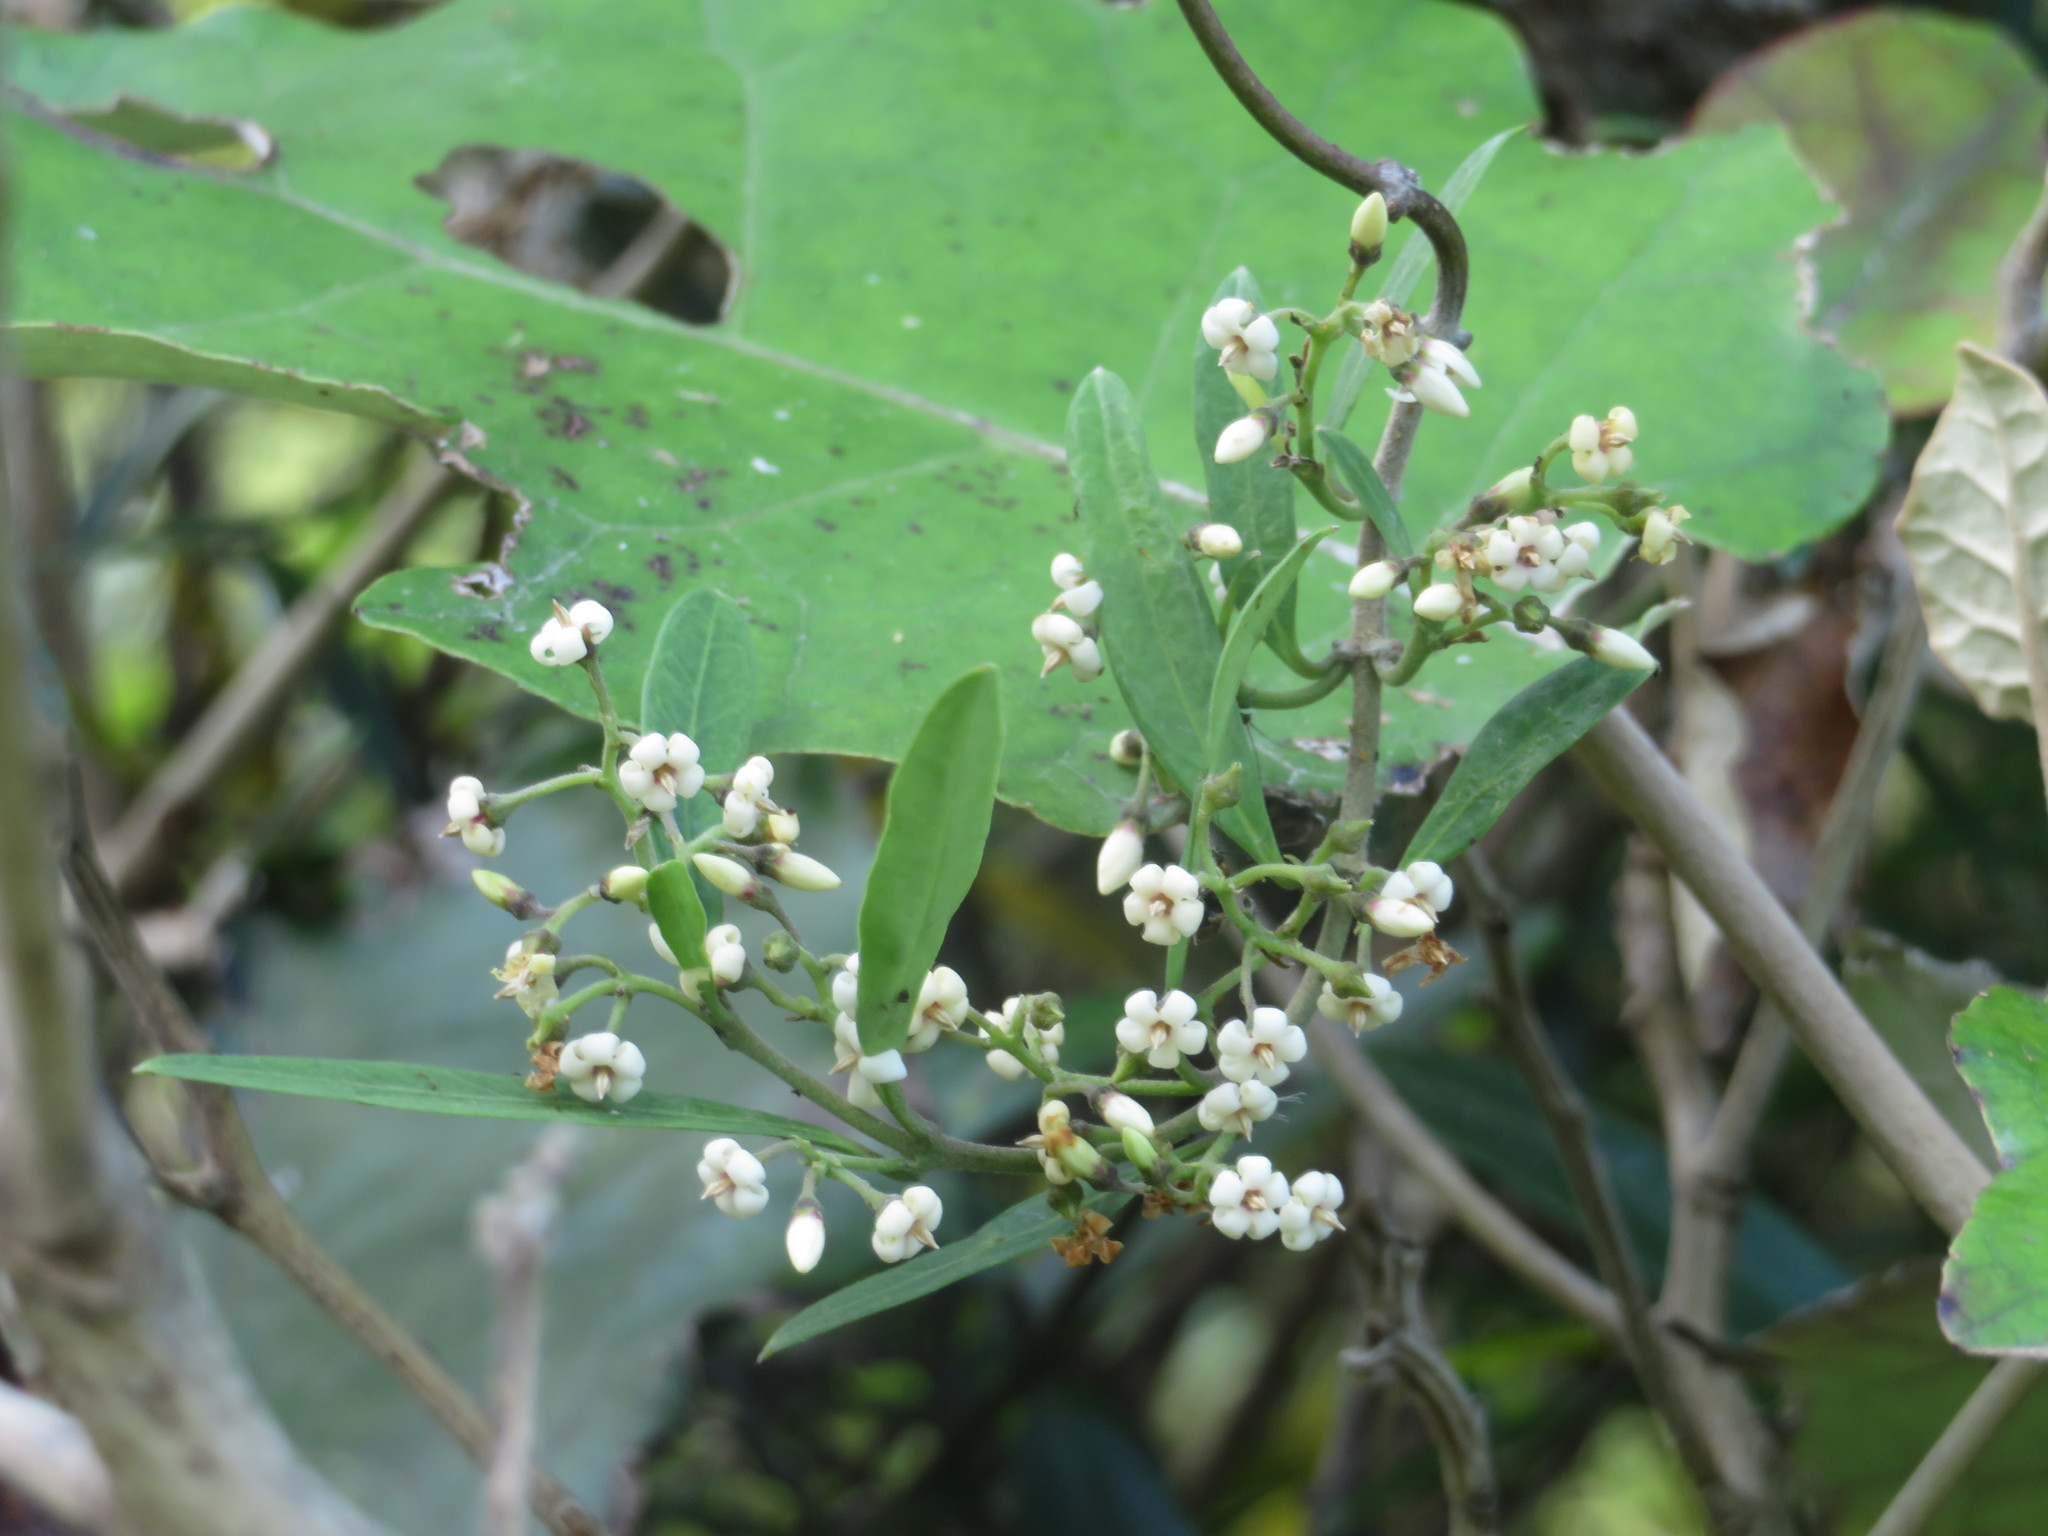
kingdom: Plantae
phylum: Tracheophyta
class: Magnoliopsida
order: Gentianales
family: Apocynaceae
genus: Parsonsia
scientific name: Parsonsia heterophylla
